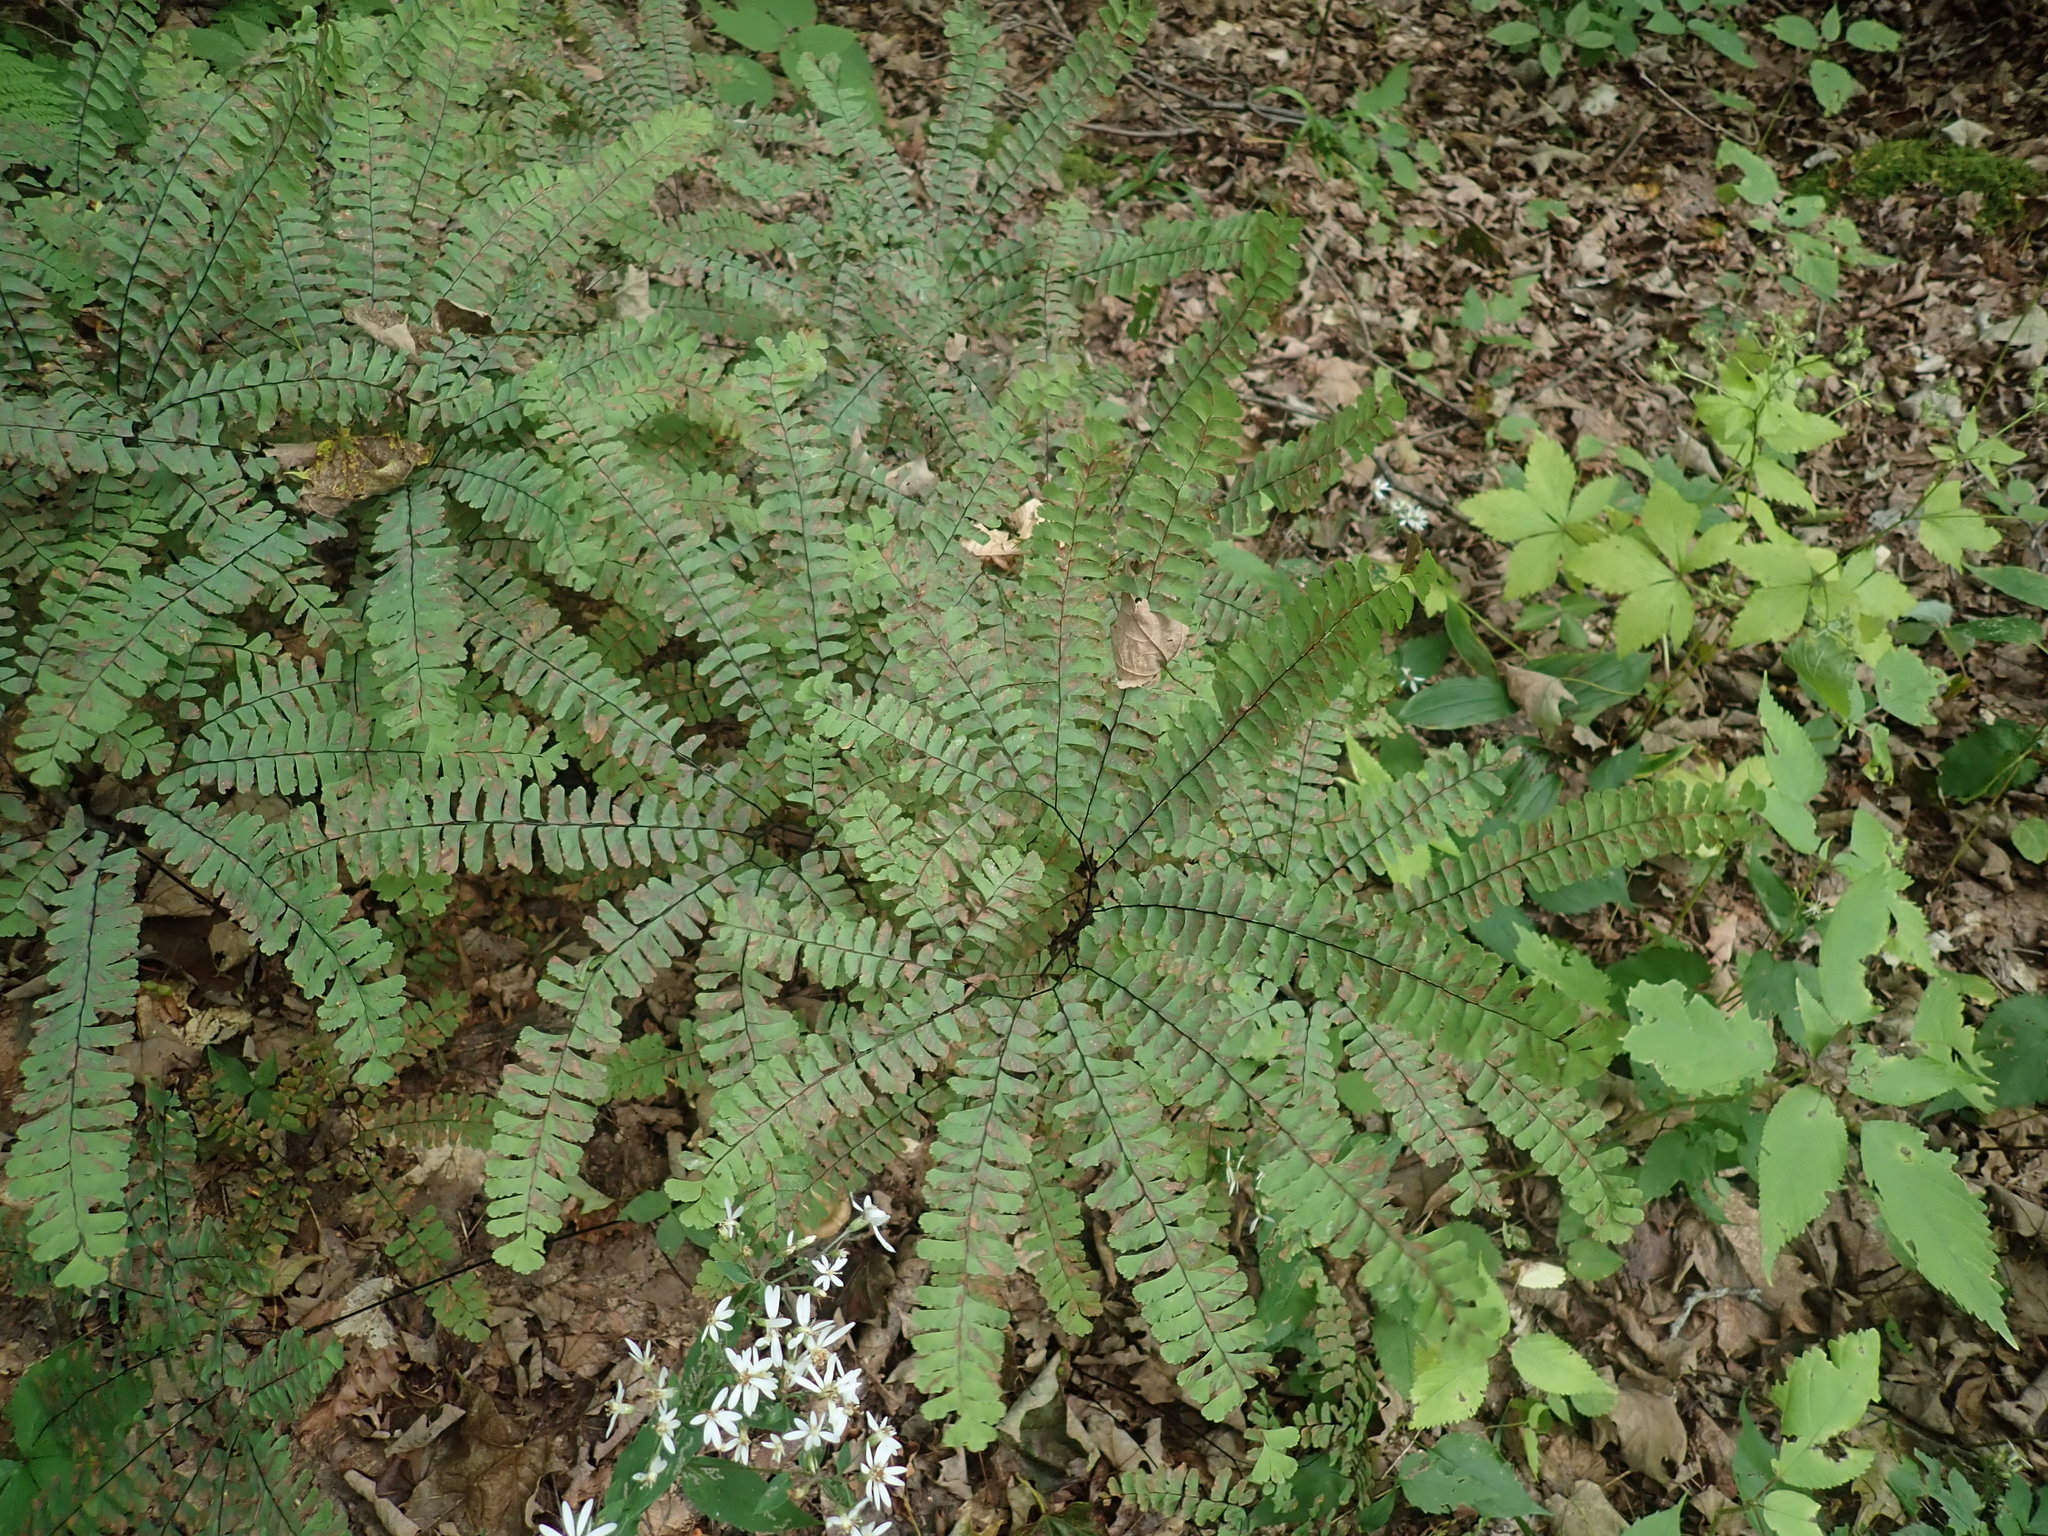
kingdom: Plantae
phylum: Tracheophyta
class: Polypodiopsida
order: Polypodiales
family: Pteridaceae
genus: Adiantum
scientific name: Adiantum pedatum
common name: Five-finger fern
